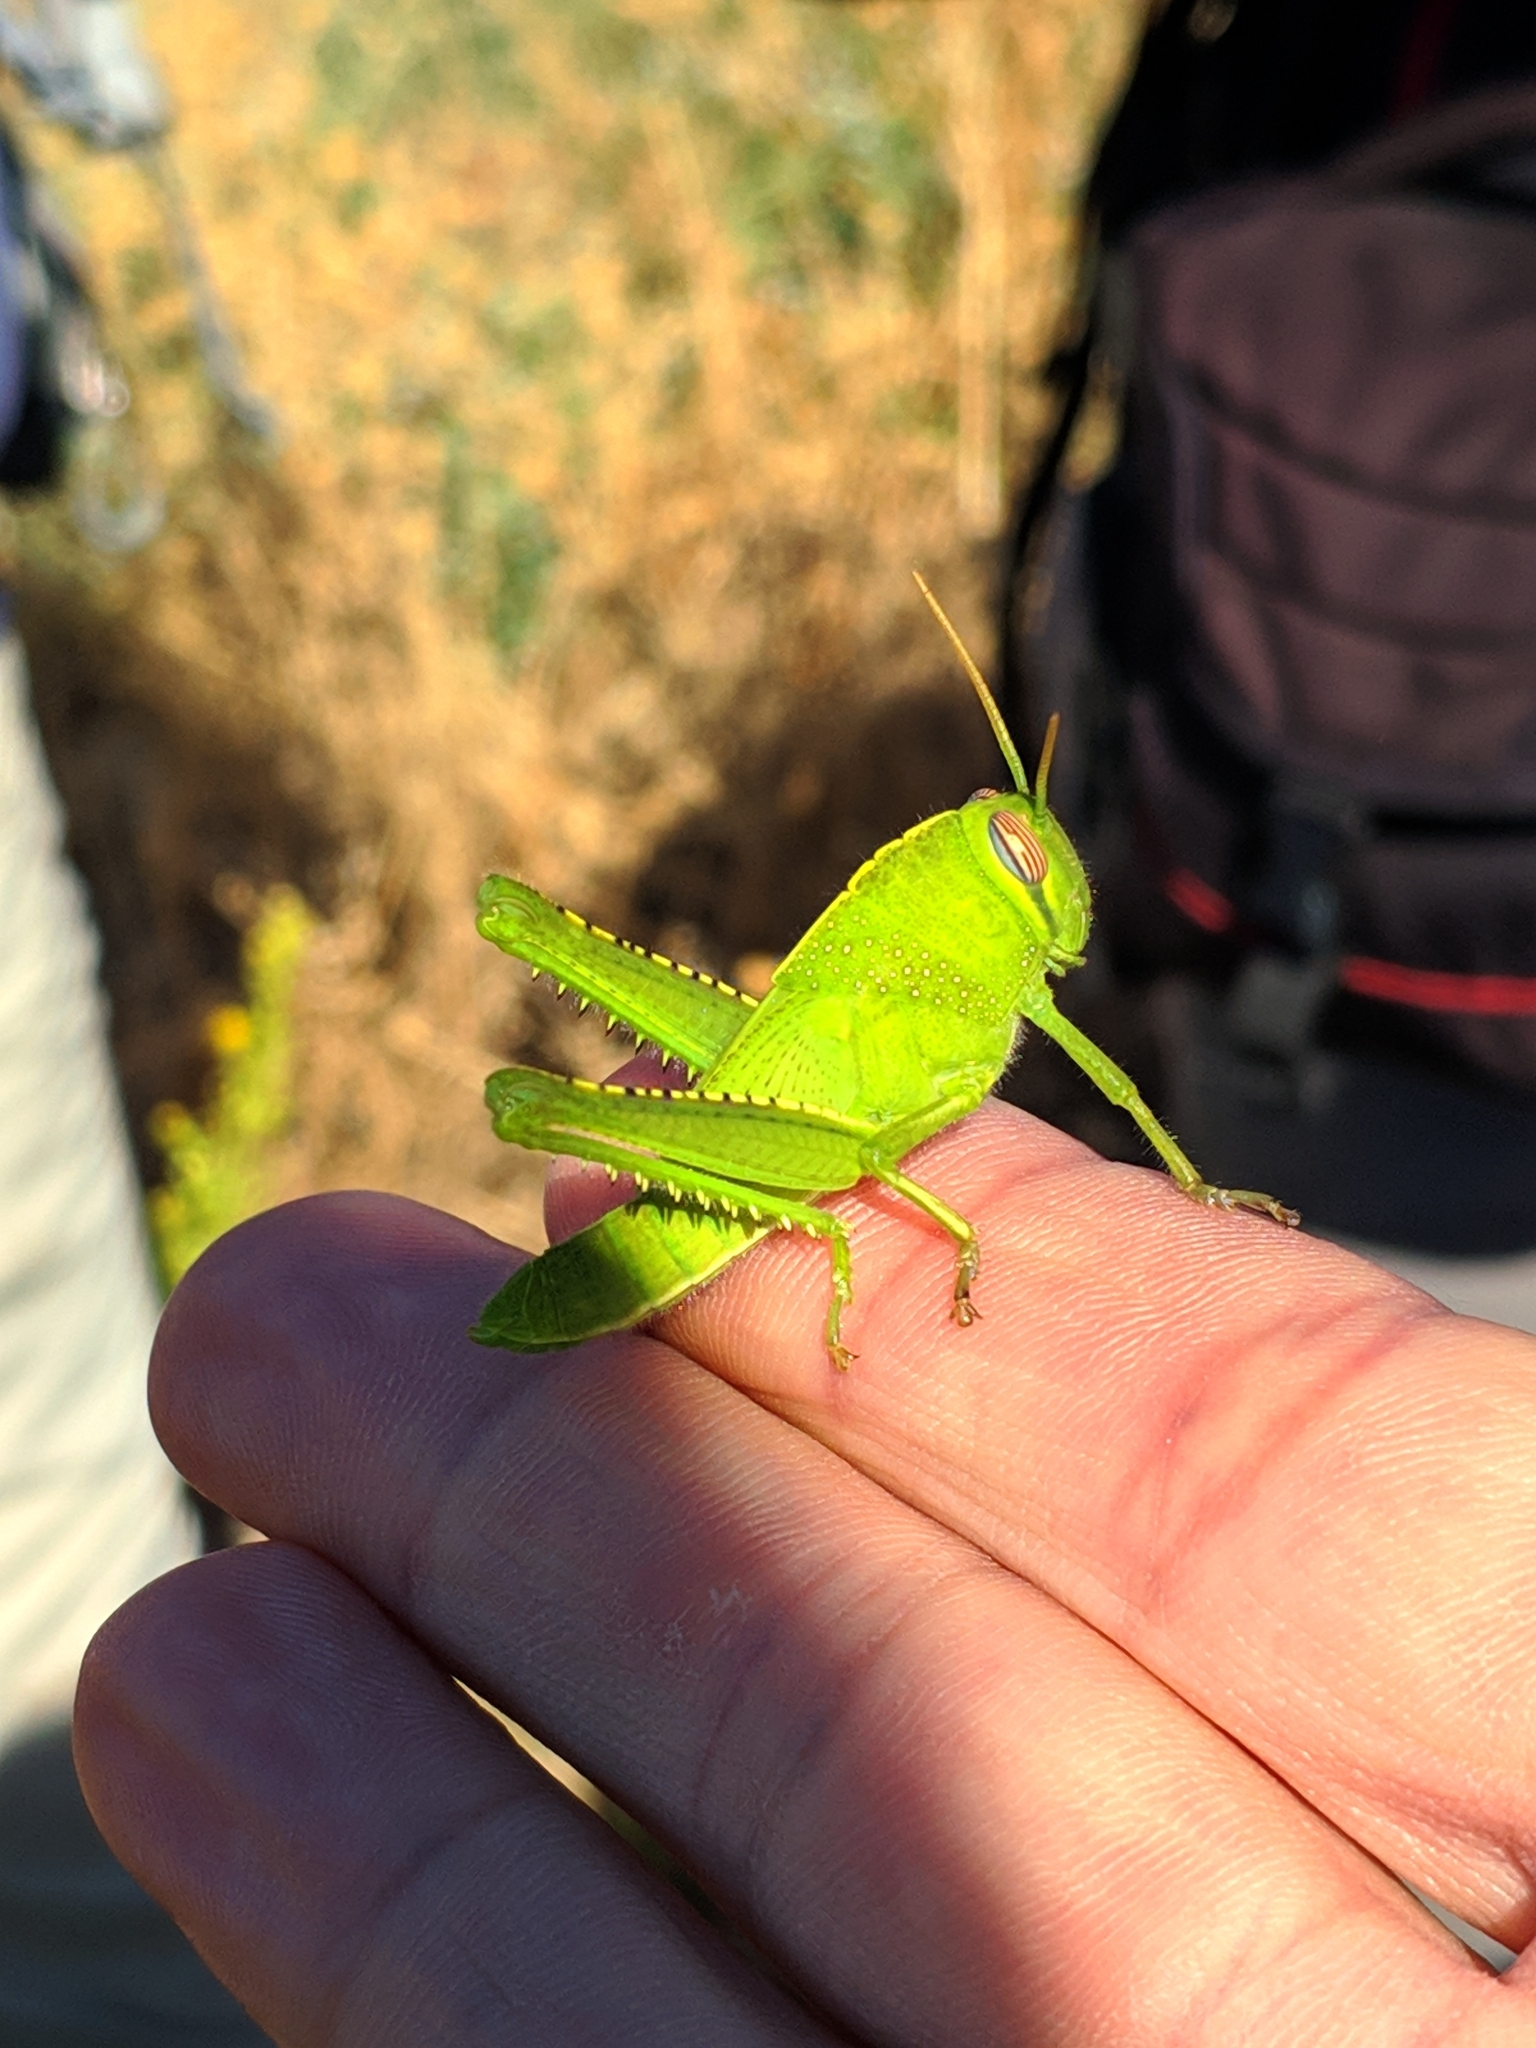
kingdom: Animalia
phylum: Arthropoda
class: Insecta
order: Orthoptera
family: Acrididae
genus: Anacridium
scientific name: Anacridium aegyptium
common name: Egyptian grasshopper
